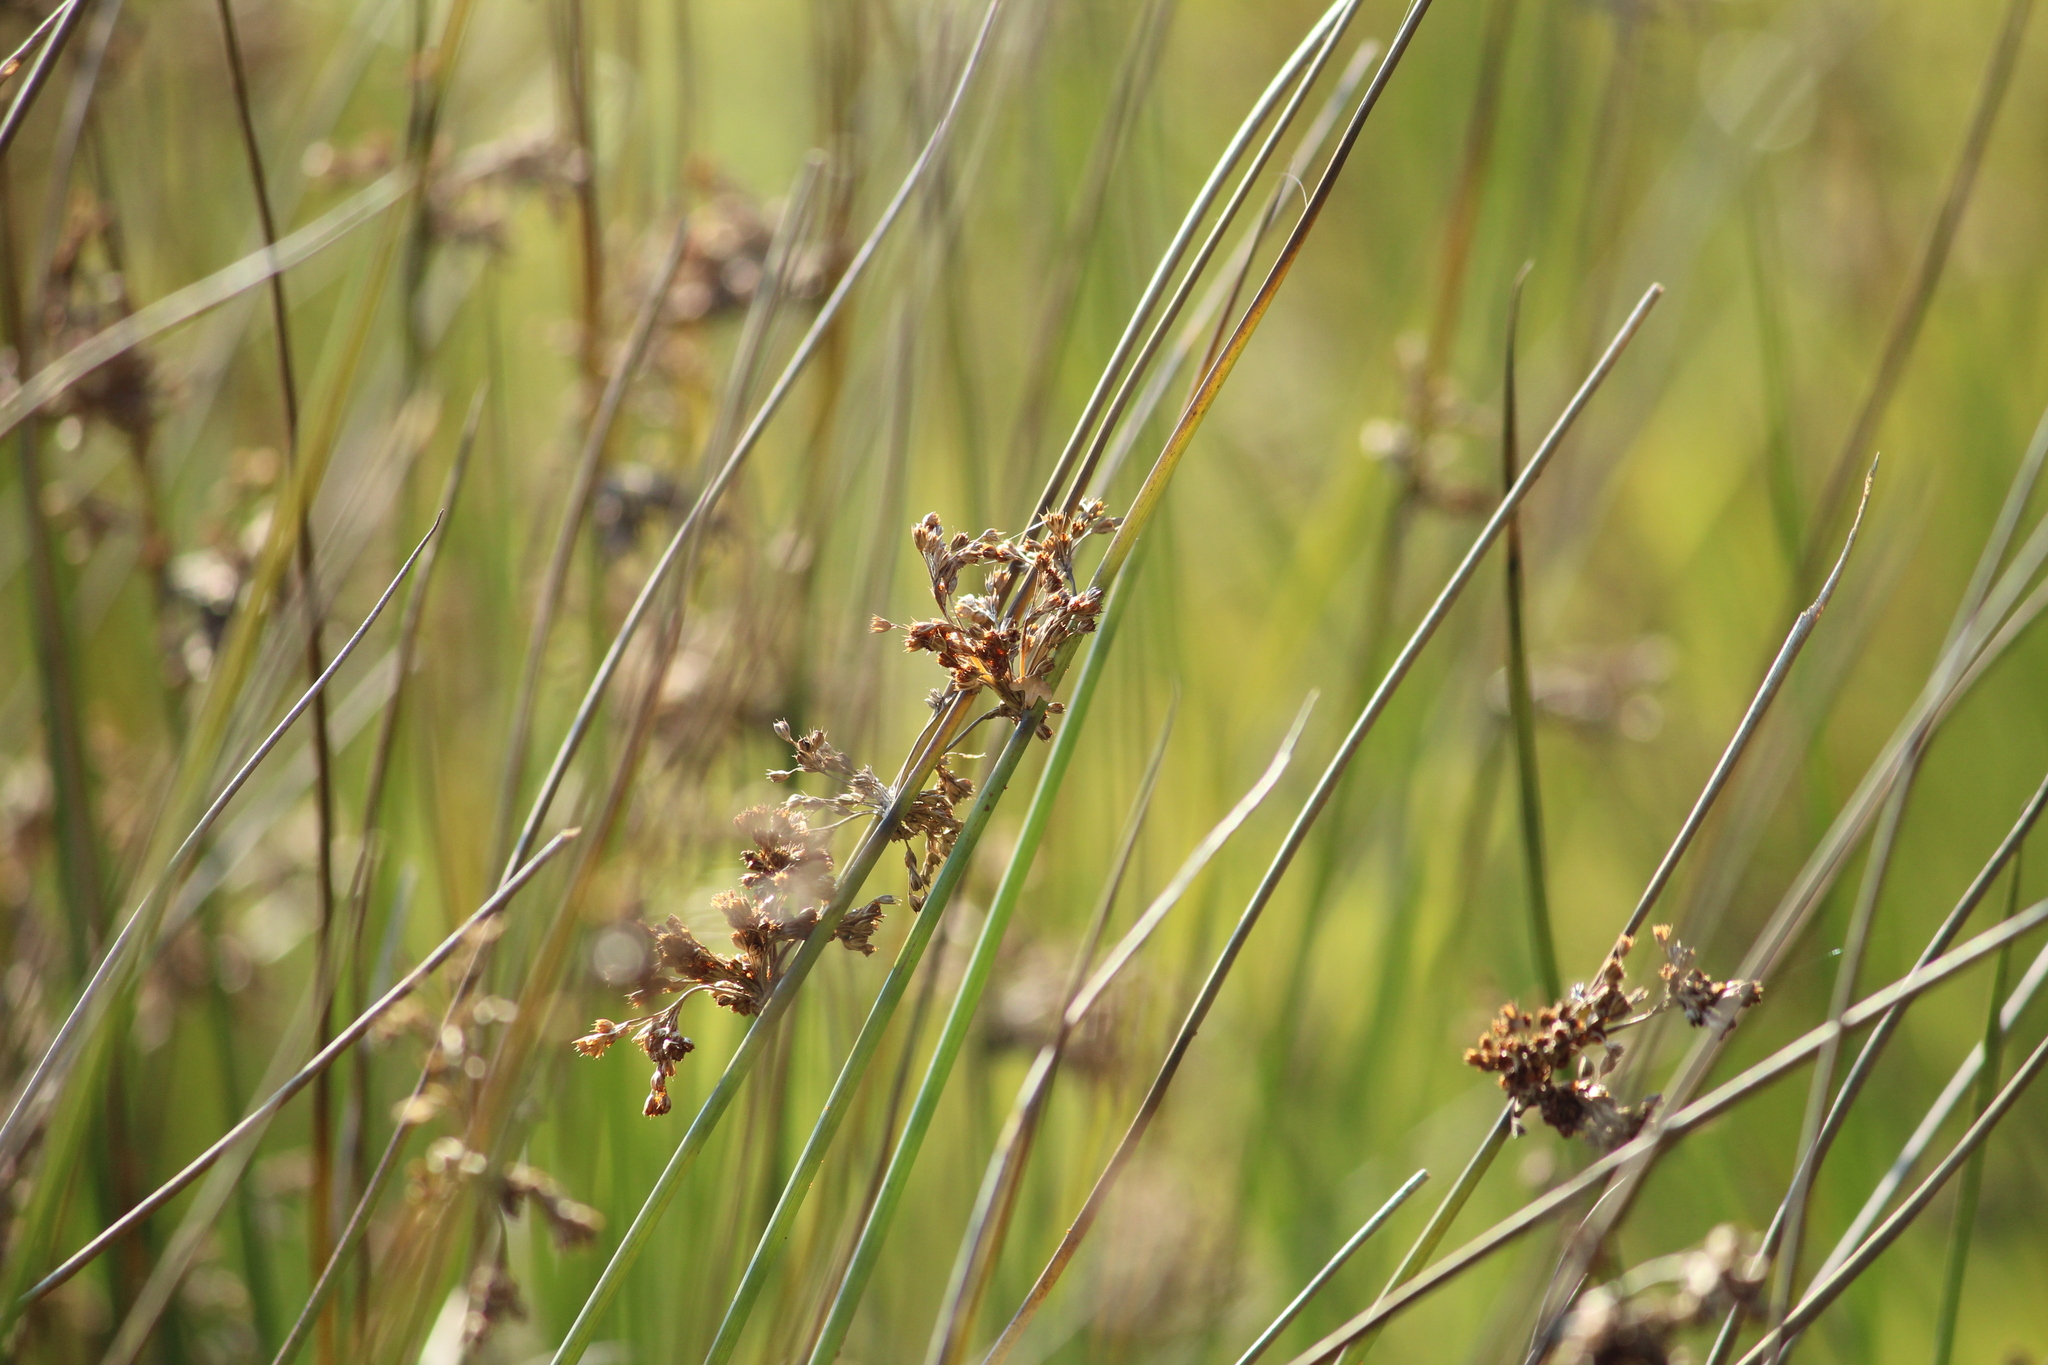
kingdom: Plantae
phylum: Tracheophyta
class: Liliopsida
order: Poales
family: Juncaceae
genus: Juncus
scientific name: Juncus effusus
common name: Soft rush
